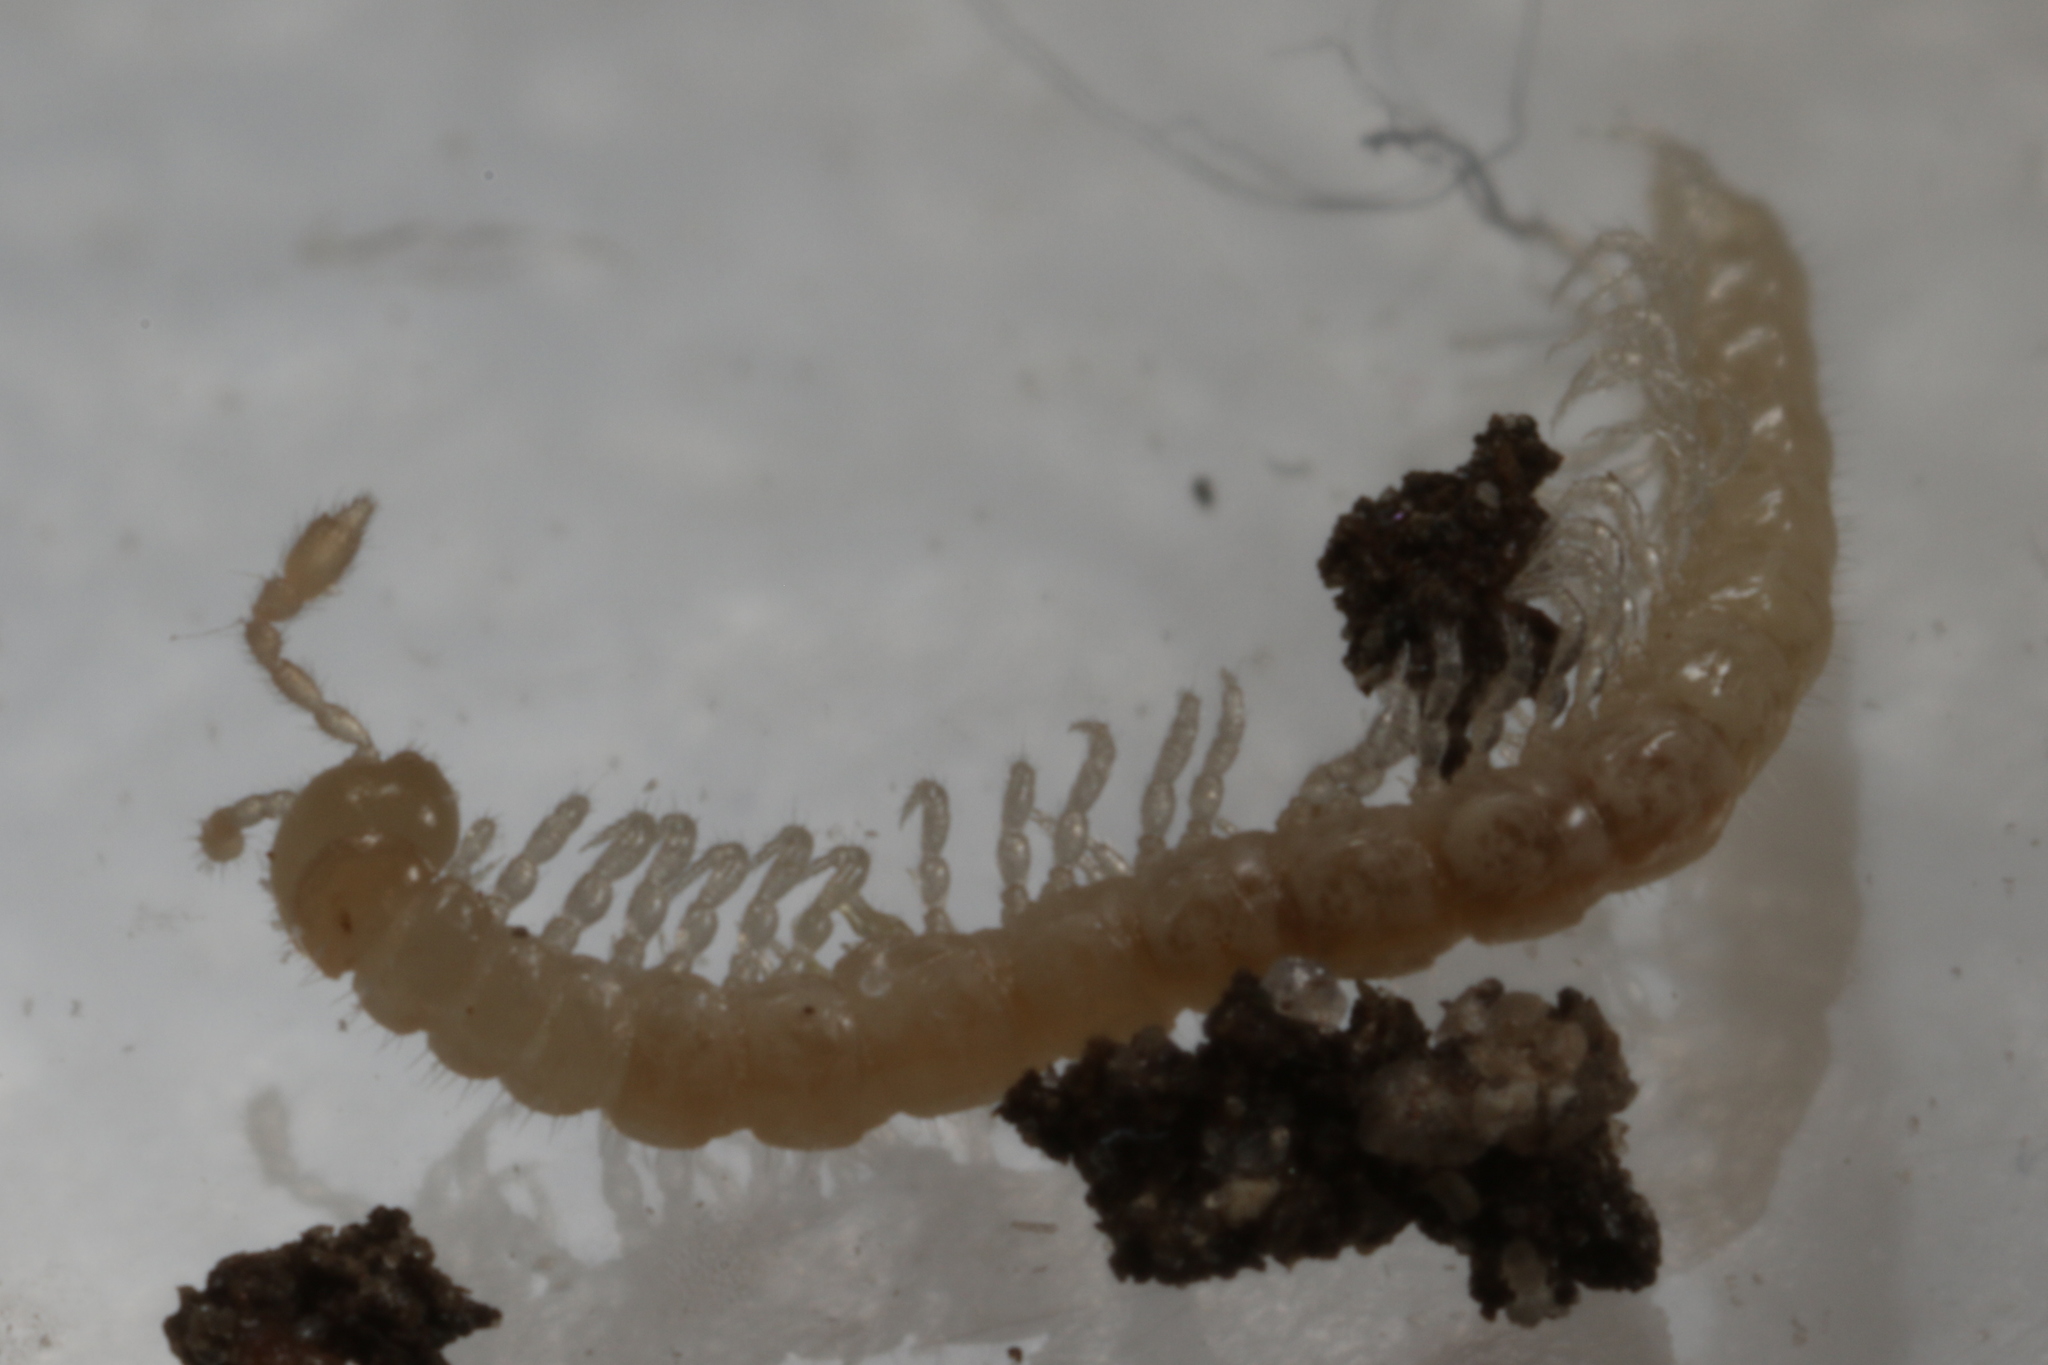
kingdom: Animalia
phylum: Arthropoda
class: Diplopoda
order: Polydesmida
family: Macrosternodesmidae
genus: Ophiodesmus
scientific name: Ophiodesmus albonanus
